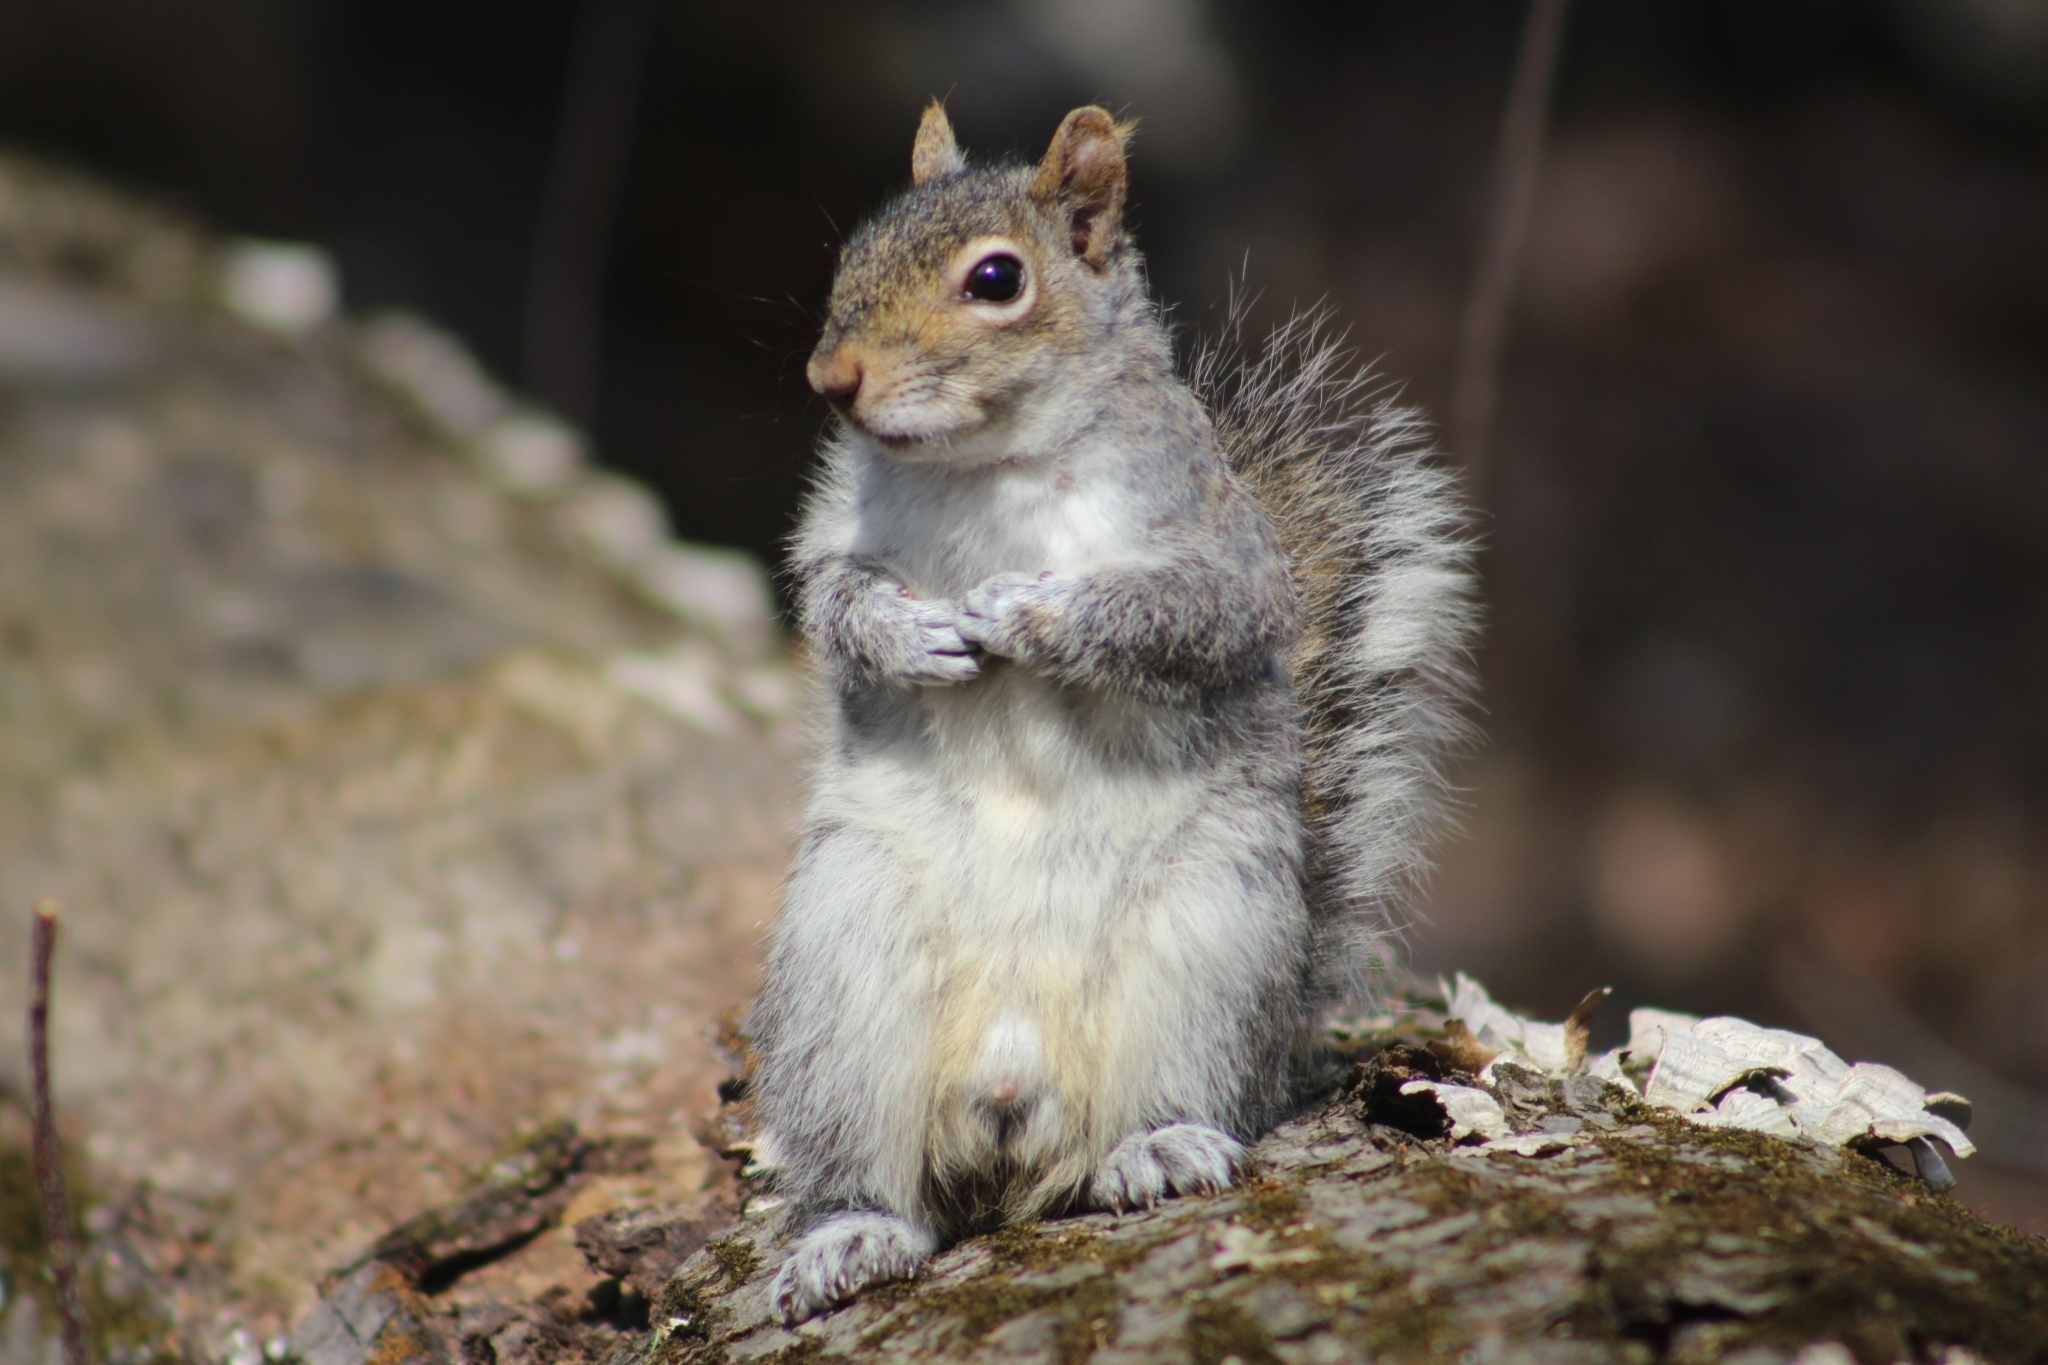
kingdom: Animalia
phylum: Chordata
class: Mammalia
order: Rodentia
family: Sciuridae
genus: Sciurus
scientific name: Sciurus carolinensis
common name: Eastern gray squirrel
